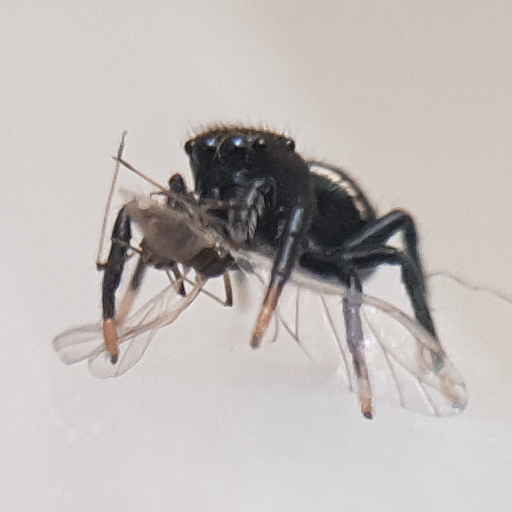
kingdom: Animalia
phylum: Arthropoda
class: Arachnida
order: Araneae
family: Salticidae
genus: Heliophanus
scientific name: Heliophanus kochii
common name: Sun jumping spider
